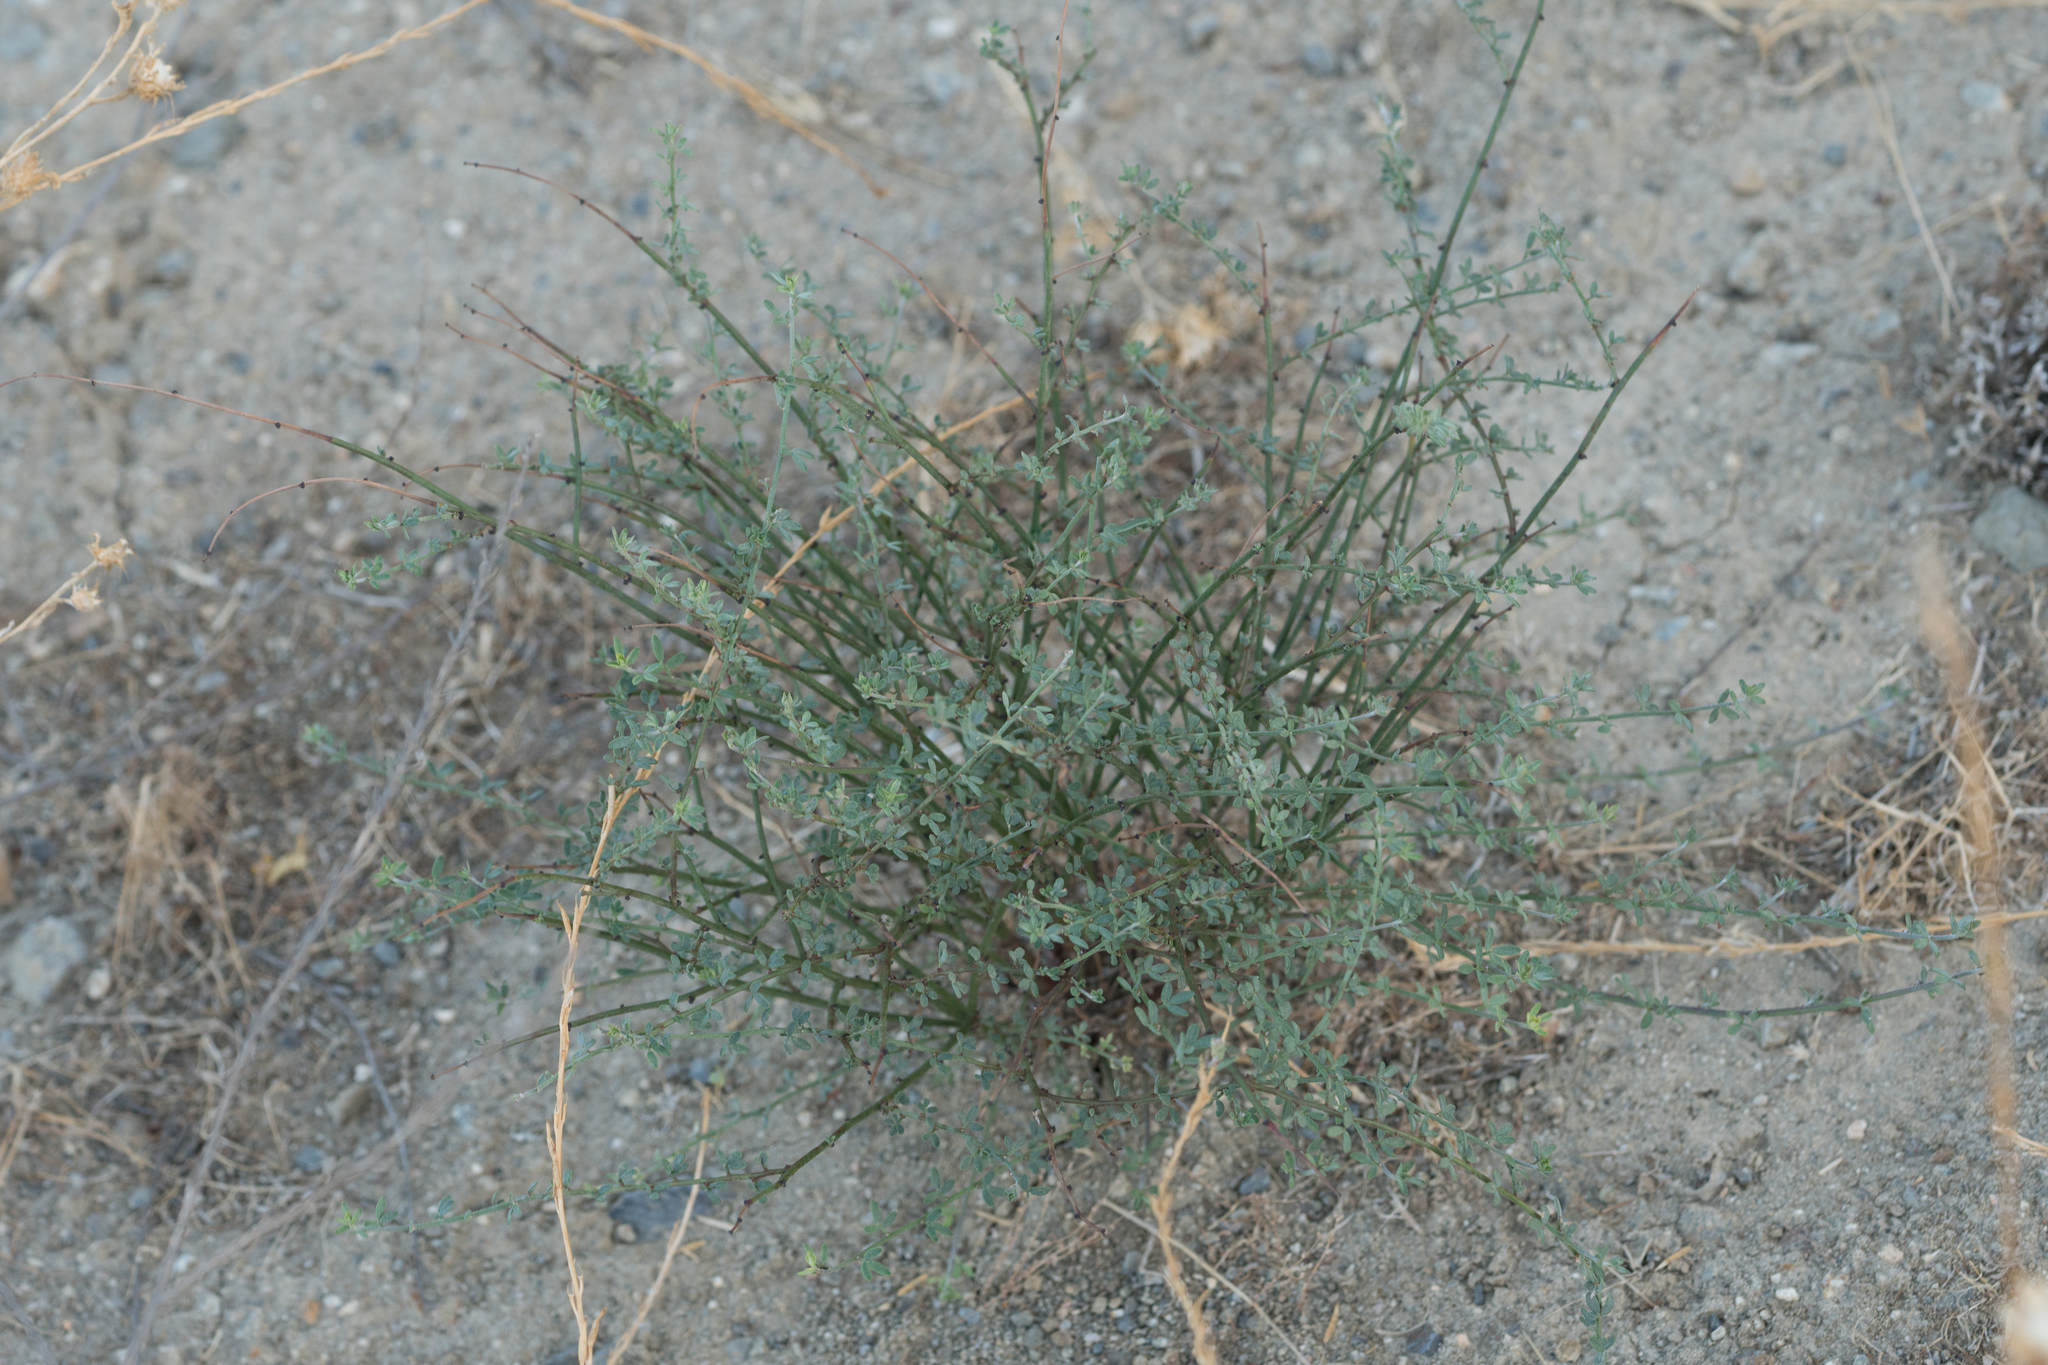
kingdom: Plantae
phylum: Tracheophyta
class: Magnoliopsida
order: Fabales
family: Fabaceae
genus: Acmispon
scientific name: Acmispon glaber
